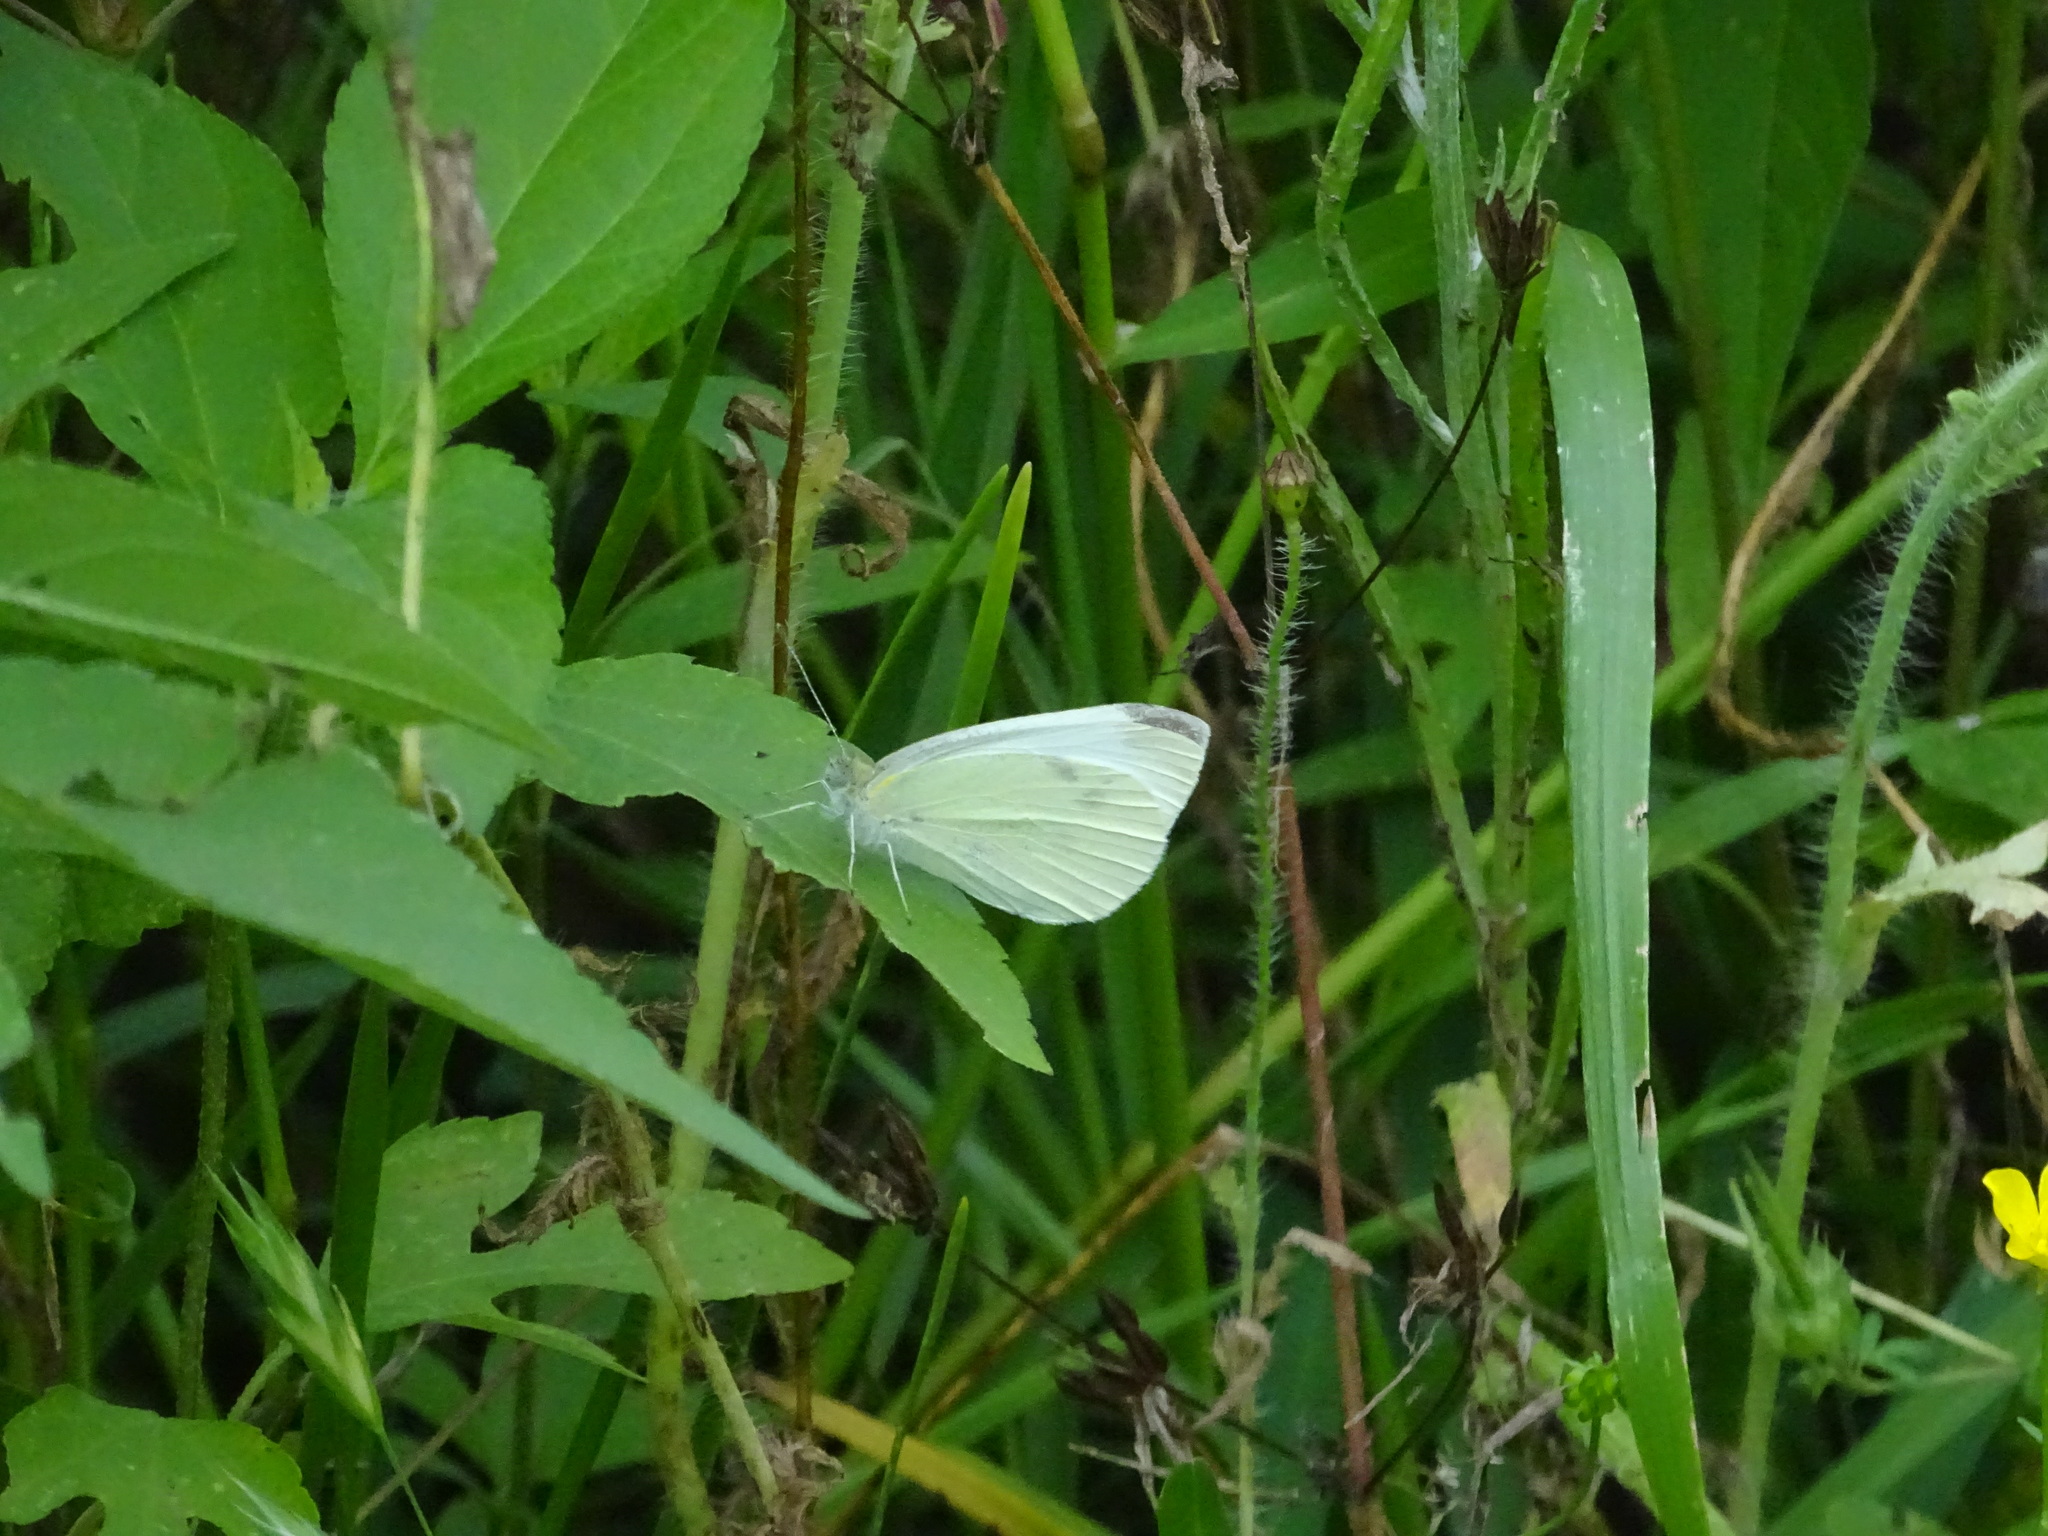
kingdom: Animalia
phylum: Arthropoda
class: Insecta
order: Lepidoptera
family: Pieridae
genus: Pieris
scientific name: Pieris rapae
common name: Small white
